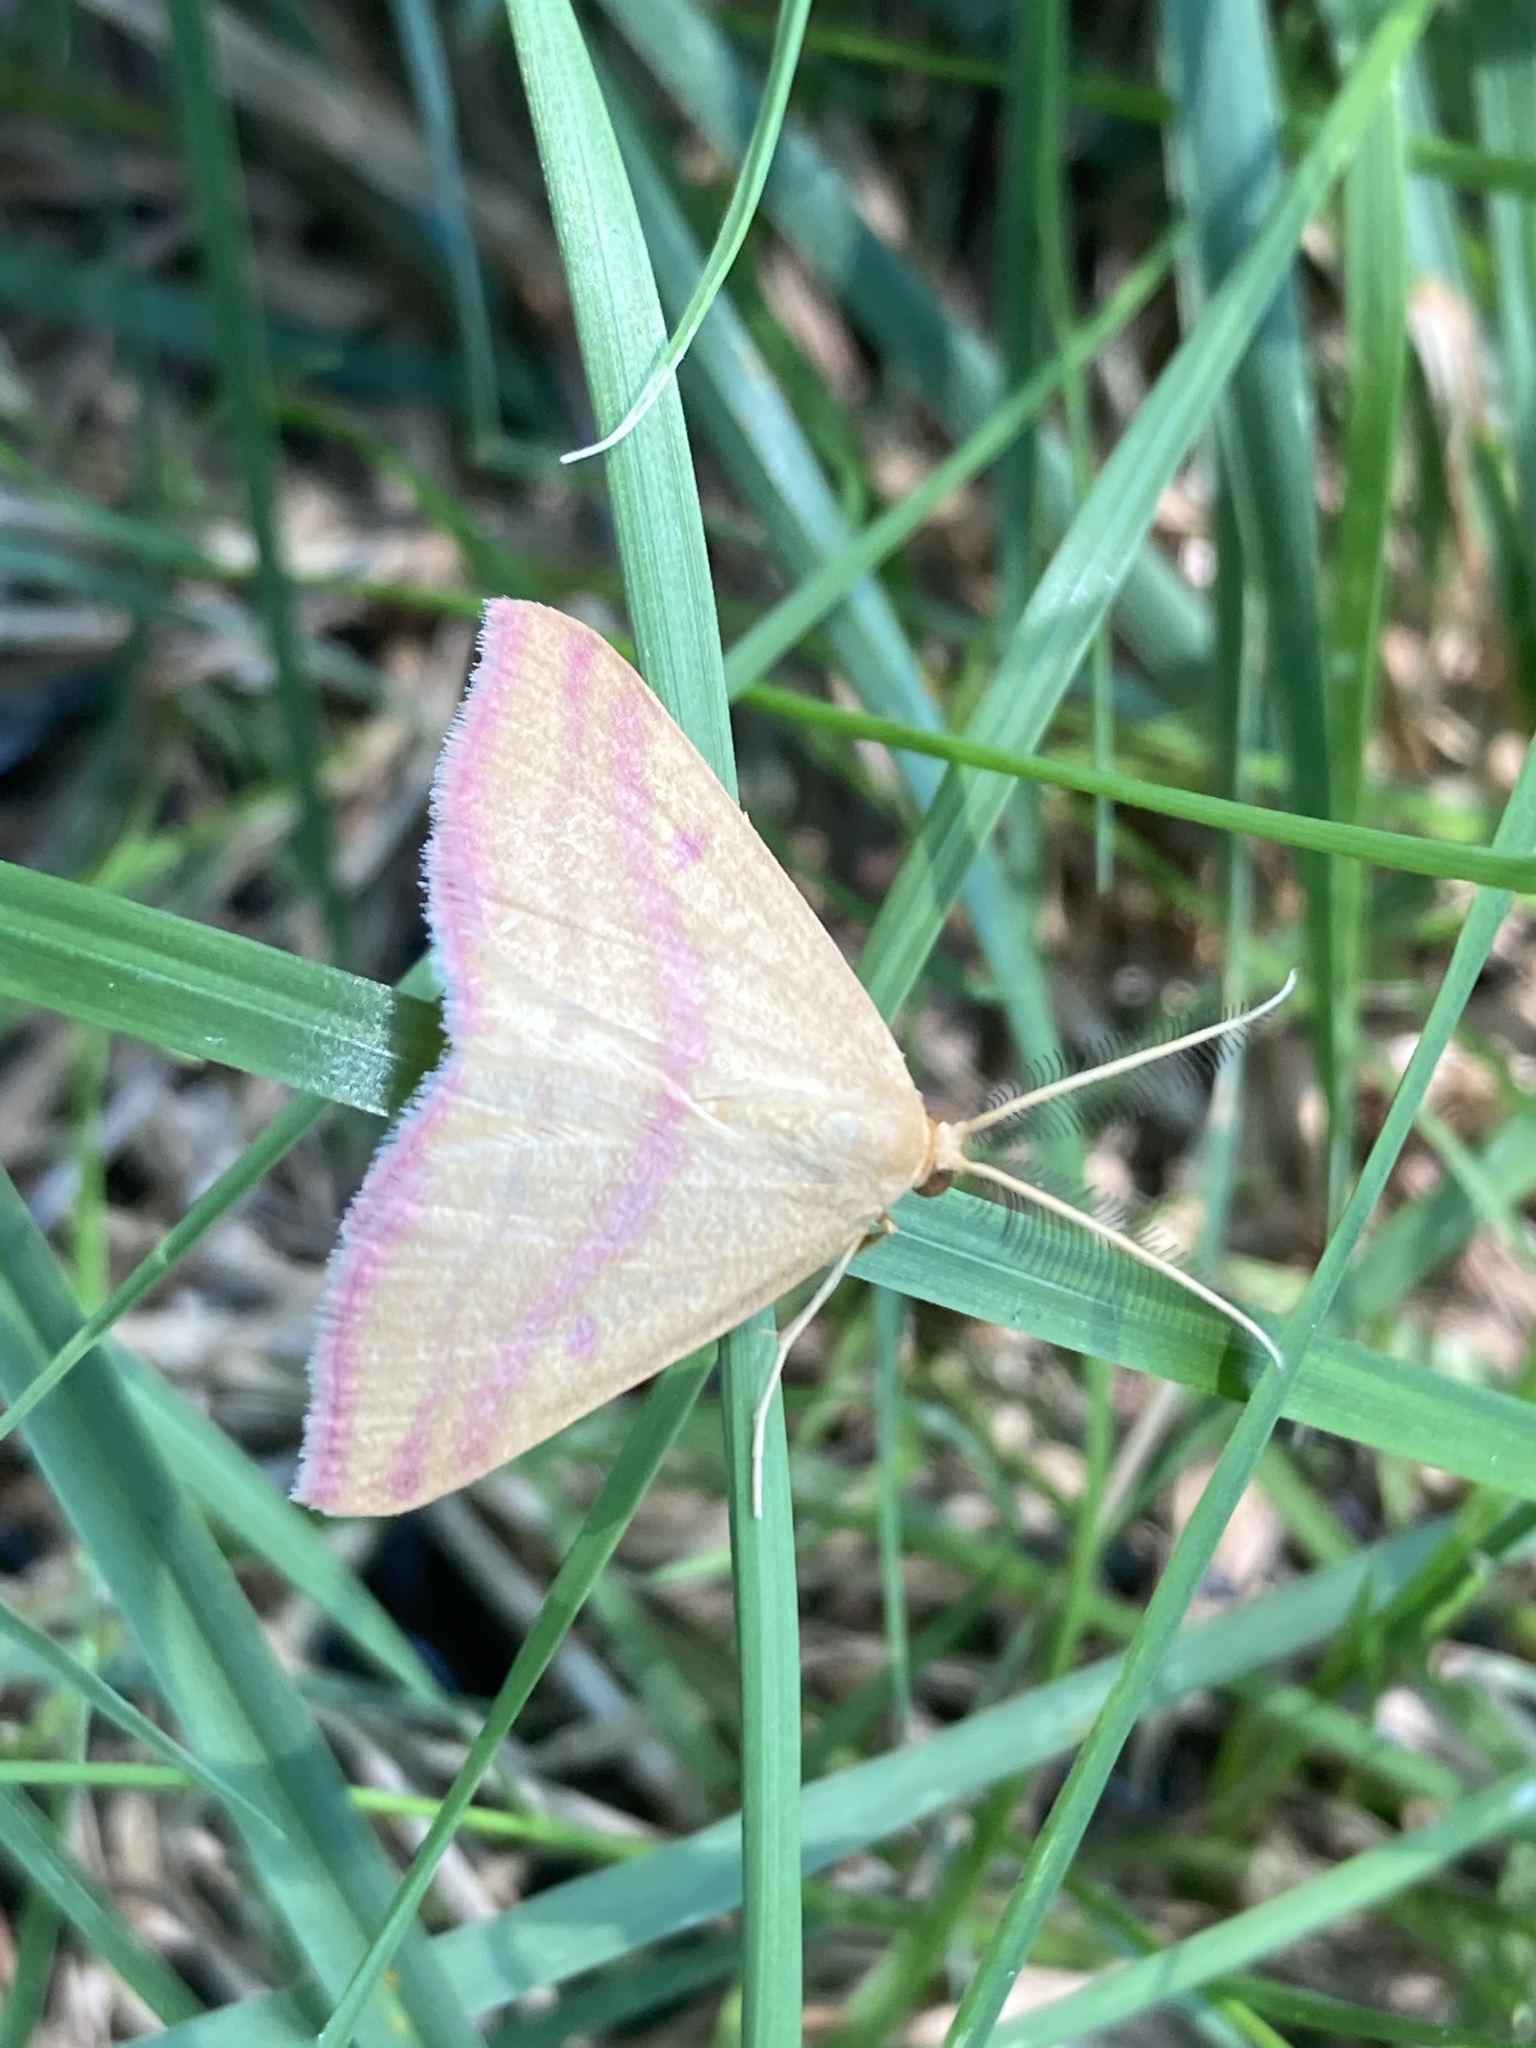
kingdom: Animalia
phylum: Arthropoda
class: Insecta
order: Lepidoptera
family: Geometridae
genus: Haematopis
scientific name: Haematopis grataria
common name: Chickweed geometer
